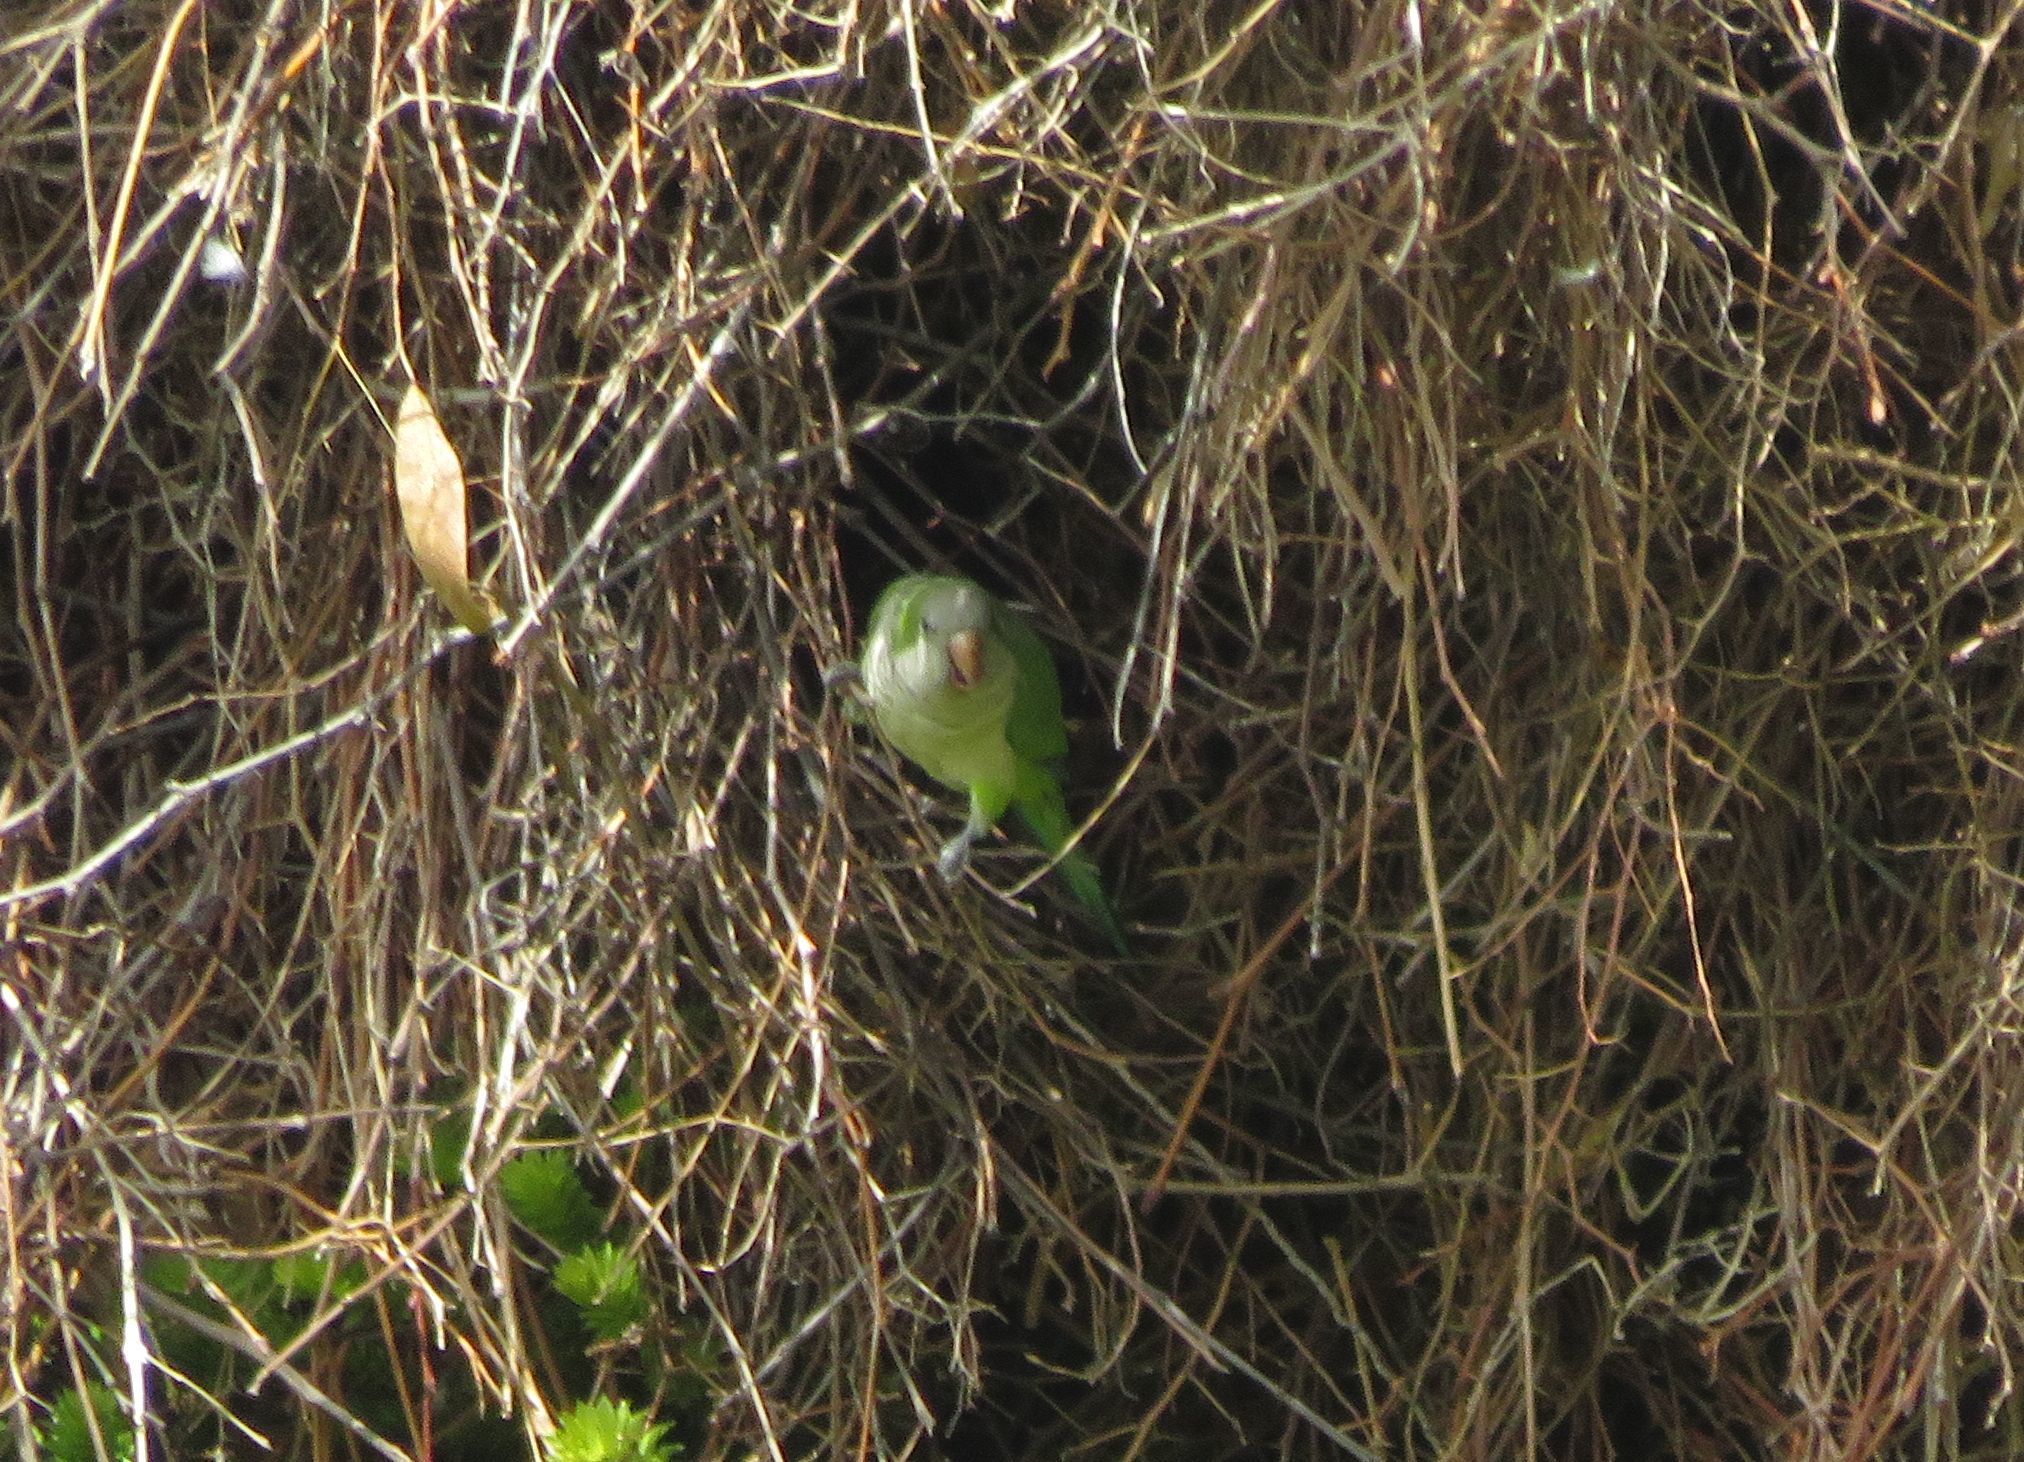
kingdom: Animalia
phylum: Chordata
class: Aves
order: Psittaciformes
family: Psittacidae
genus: Myiopsitta
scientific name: Myiopsitta monachus
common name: Monk parakeet
